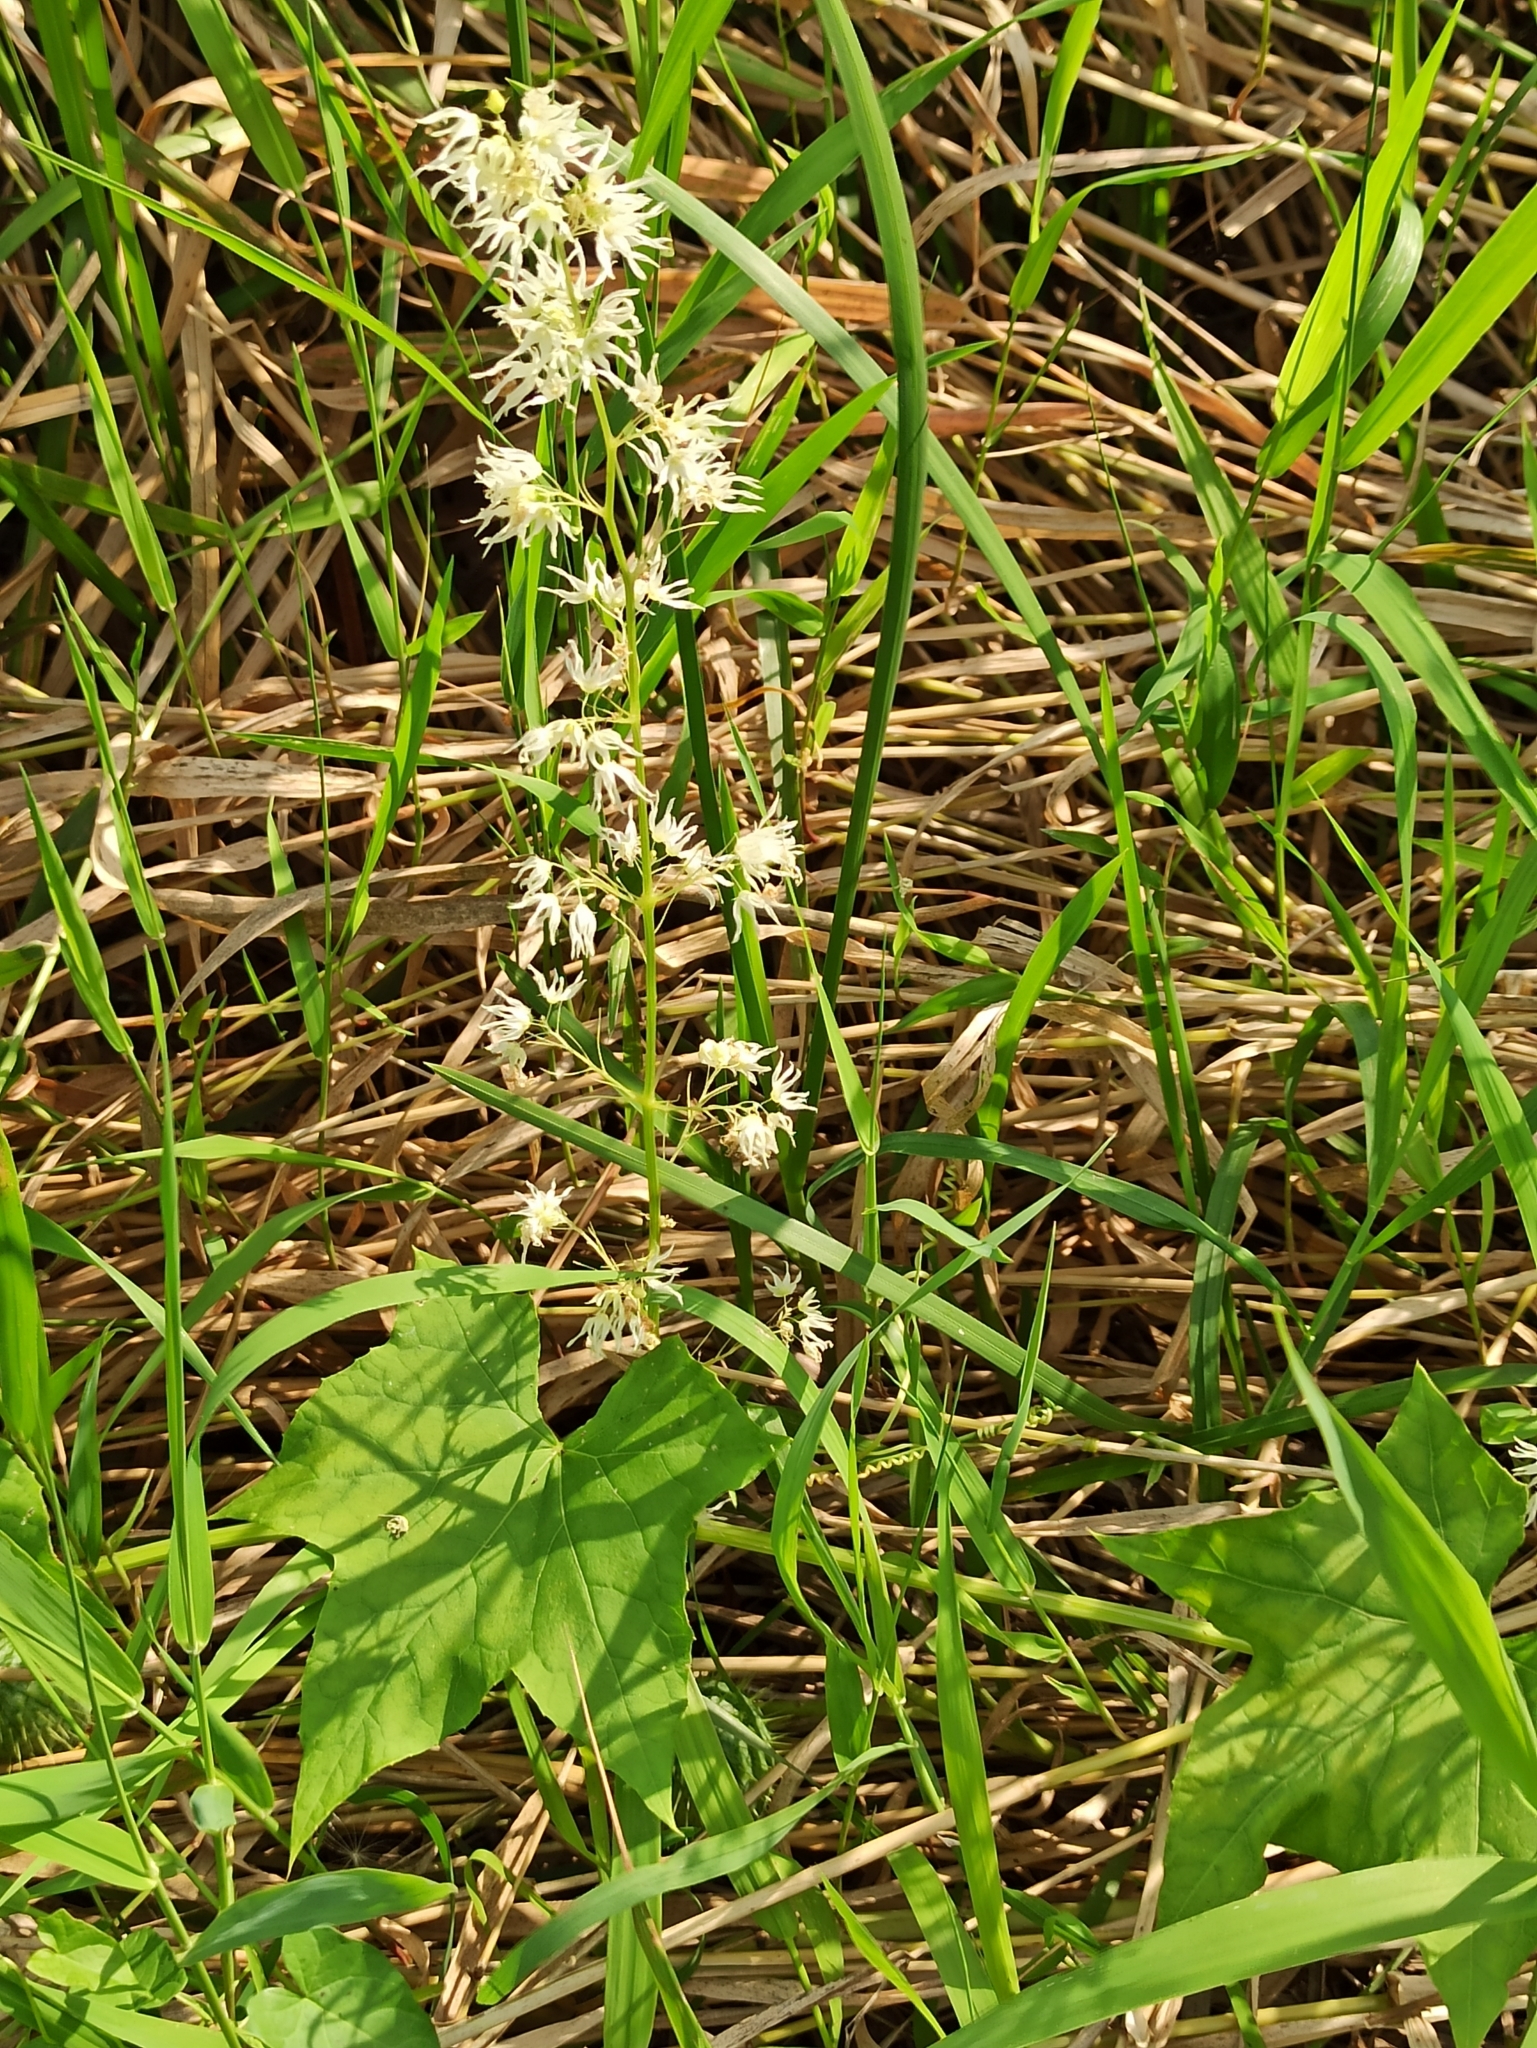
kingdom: Plantae
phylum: Tracheophyta
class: Magnoliopsida
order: Cucurbitales
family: Cucurbitaceae
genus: Echinocystis
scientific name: Echinocystis lobata
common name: Wild cucumber
